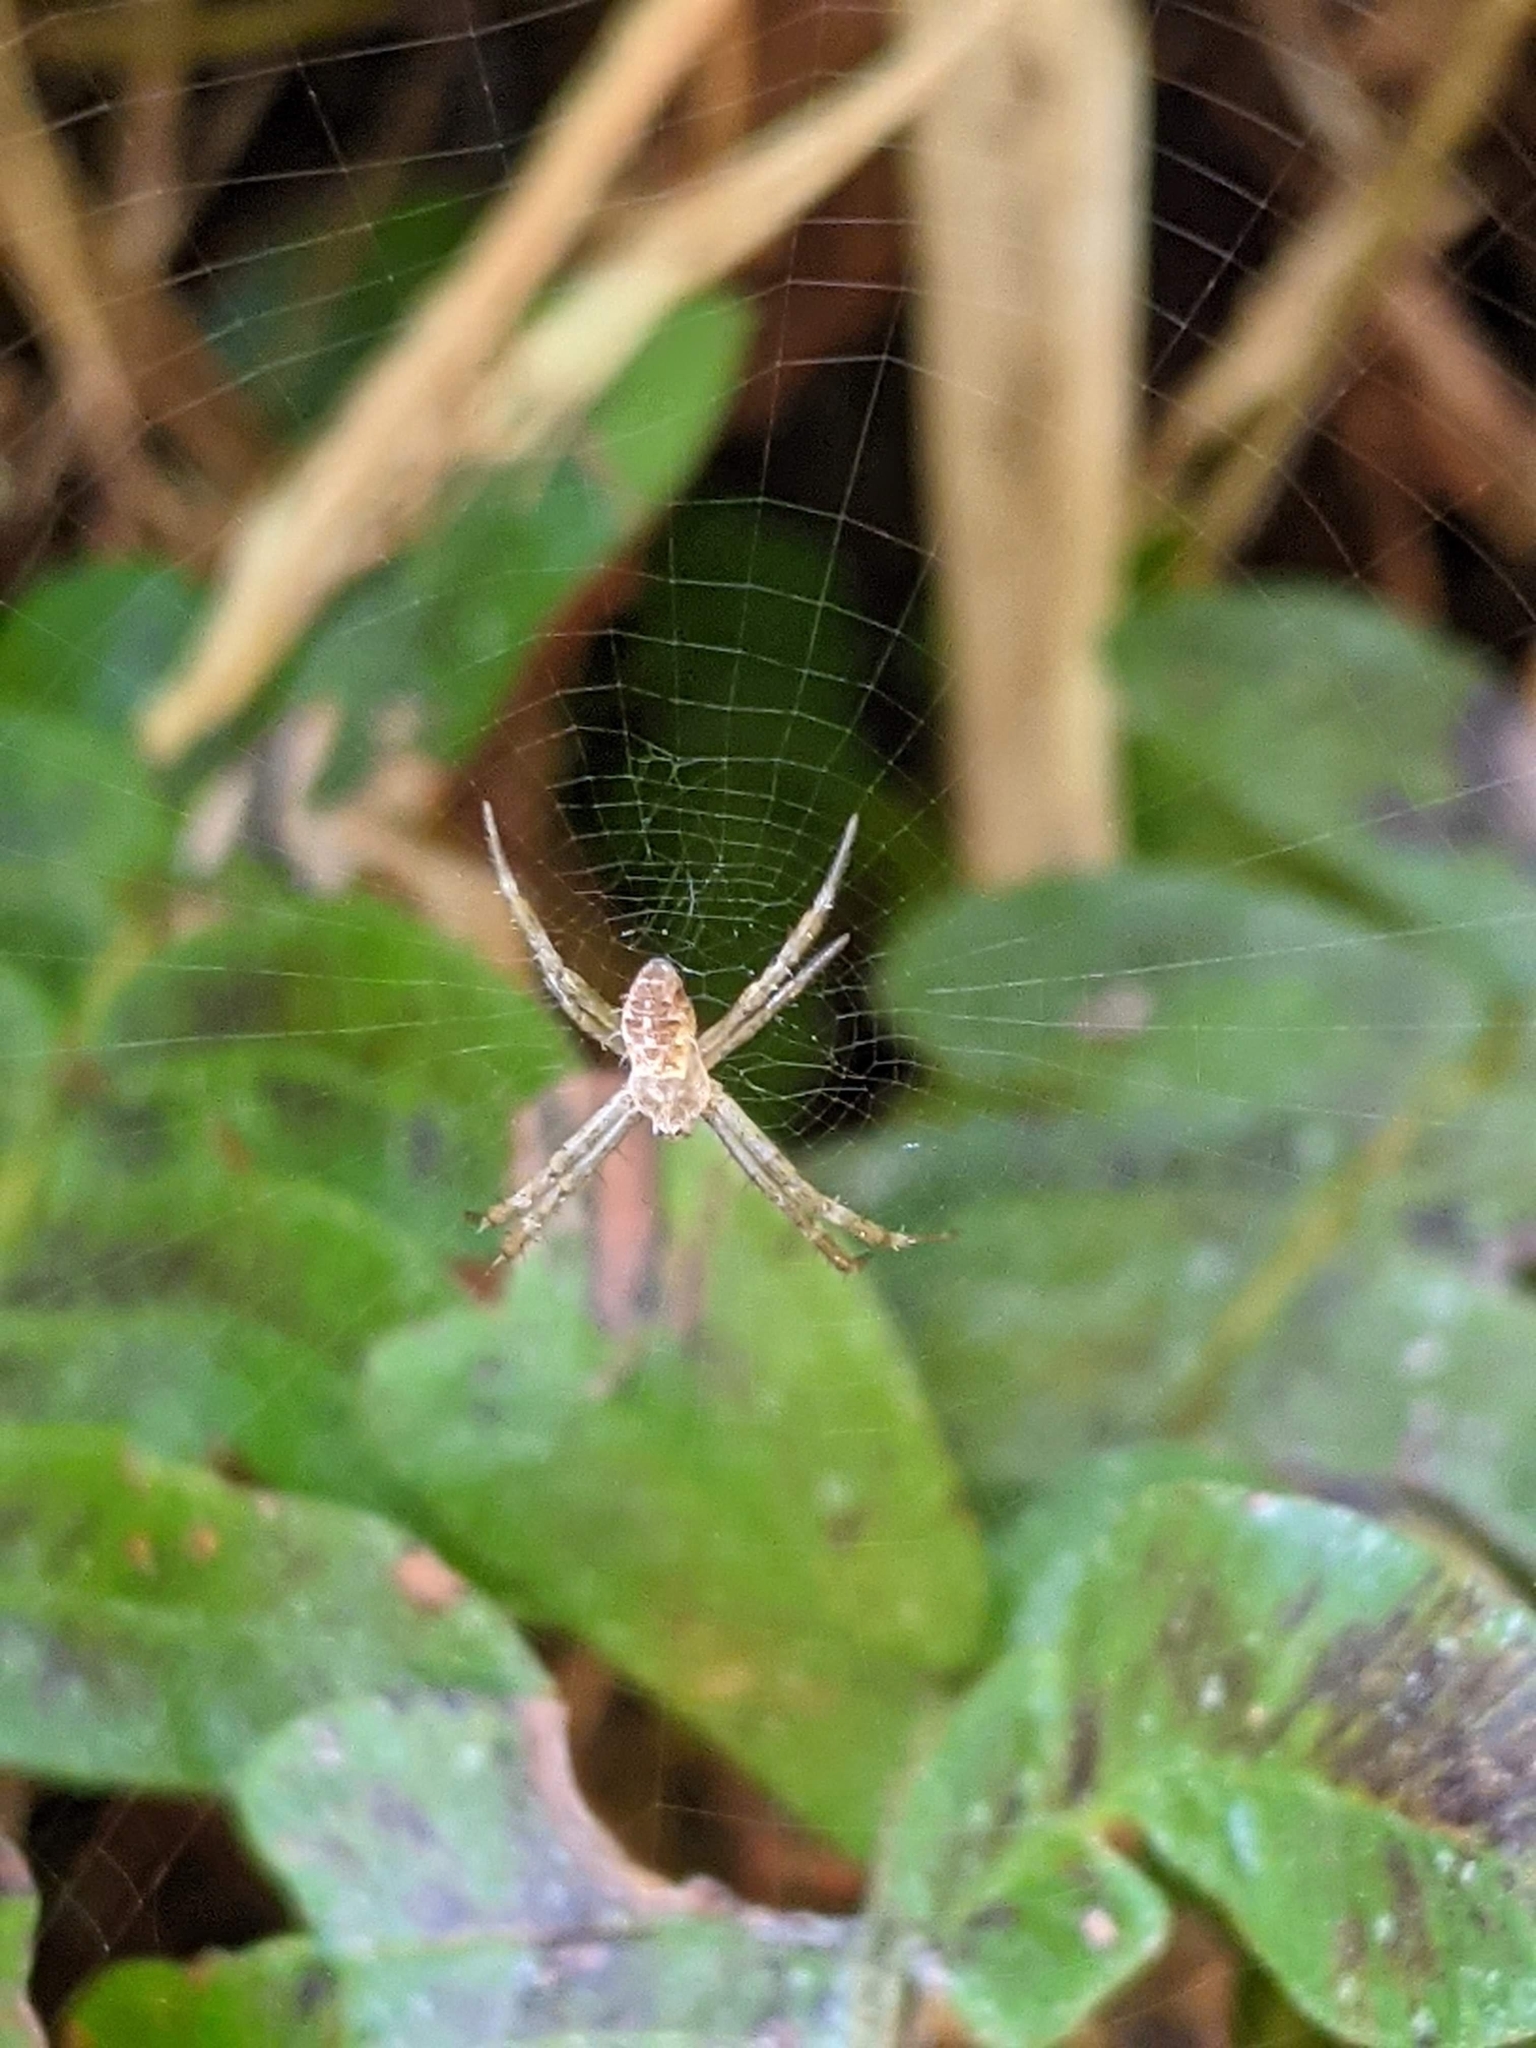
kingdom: Animalia
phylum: Arthropoda
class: Arachnida
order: Araneae
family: Araneidae
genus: Argiope
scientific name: Argiope appensa
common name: Garden spider
